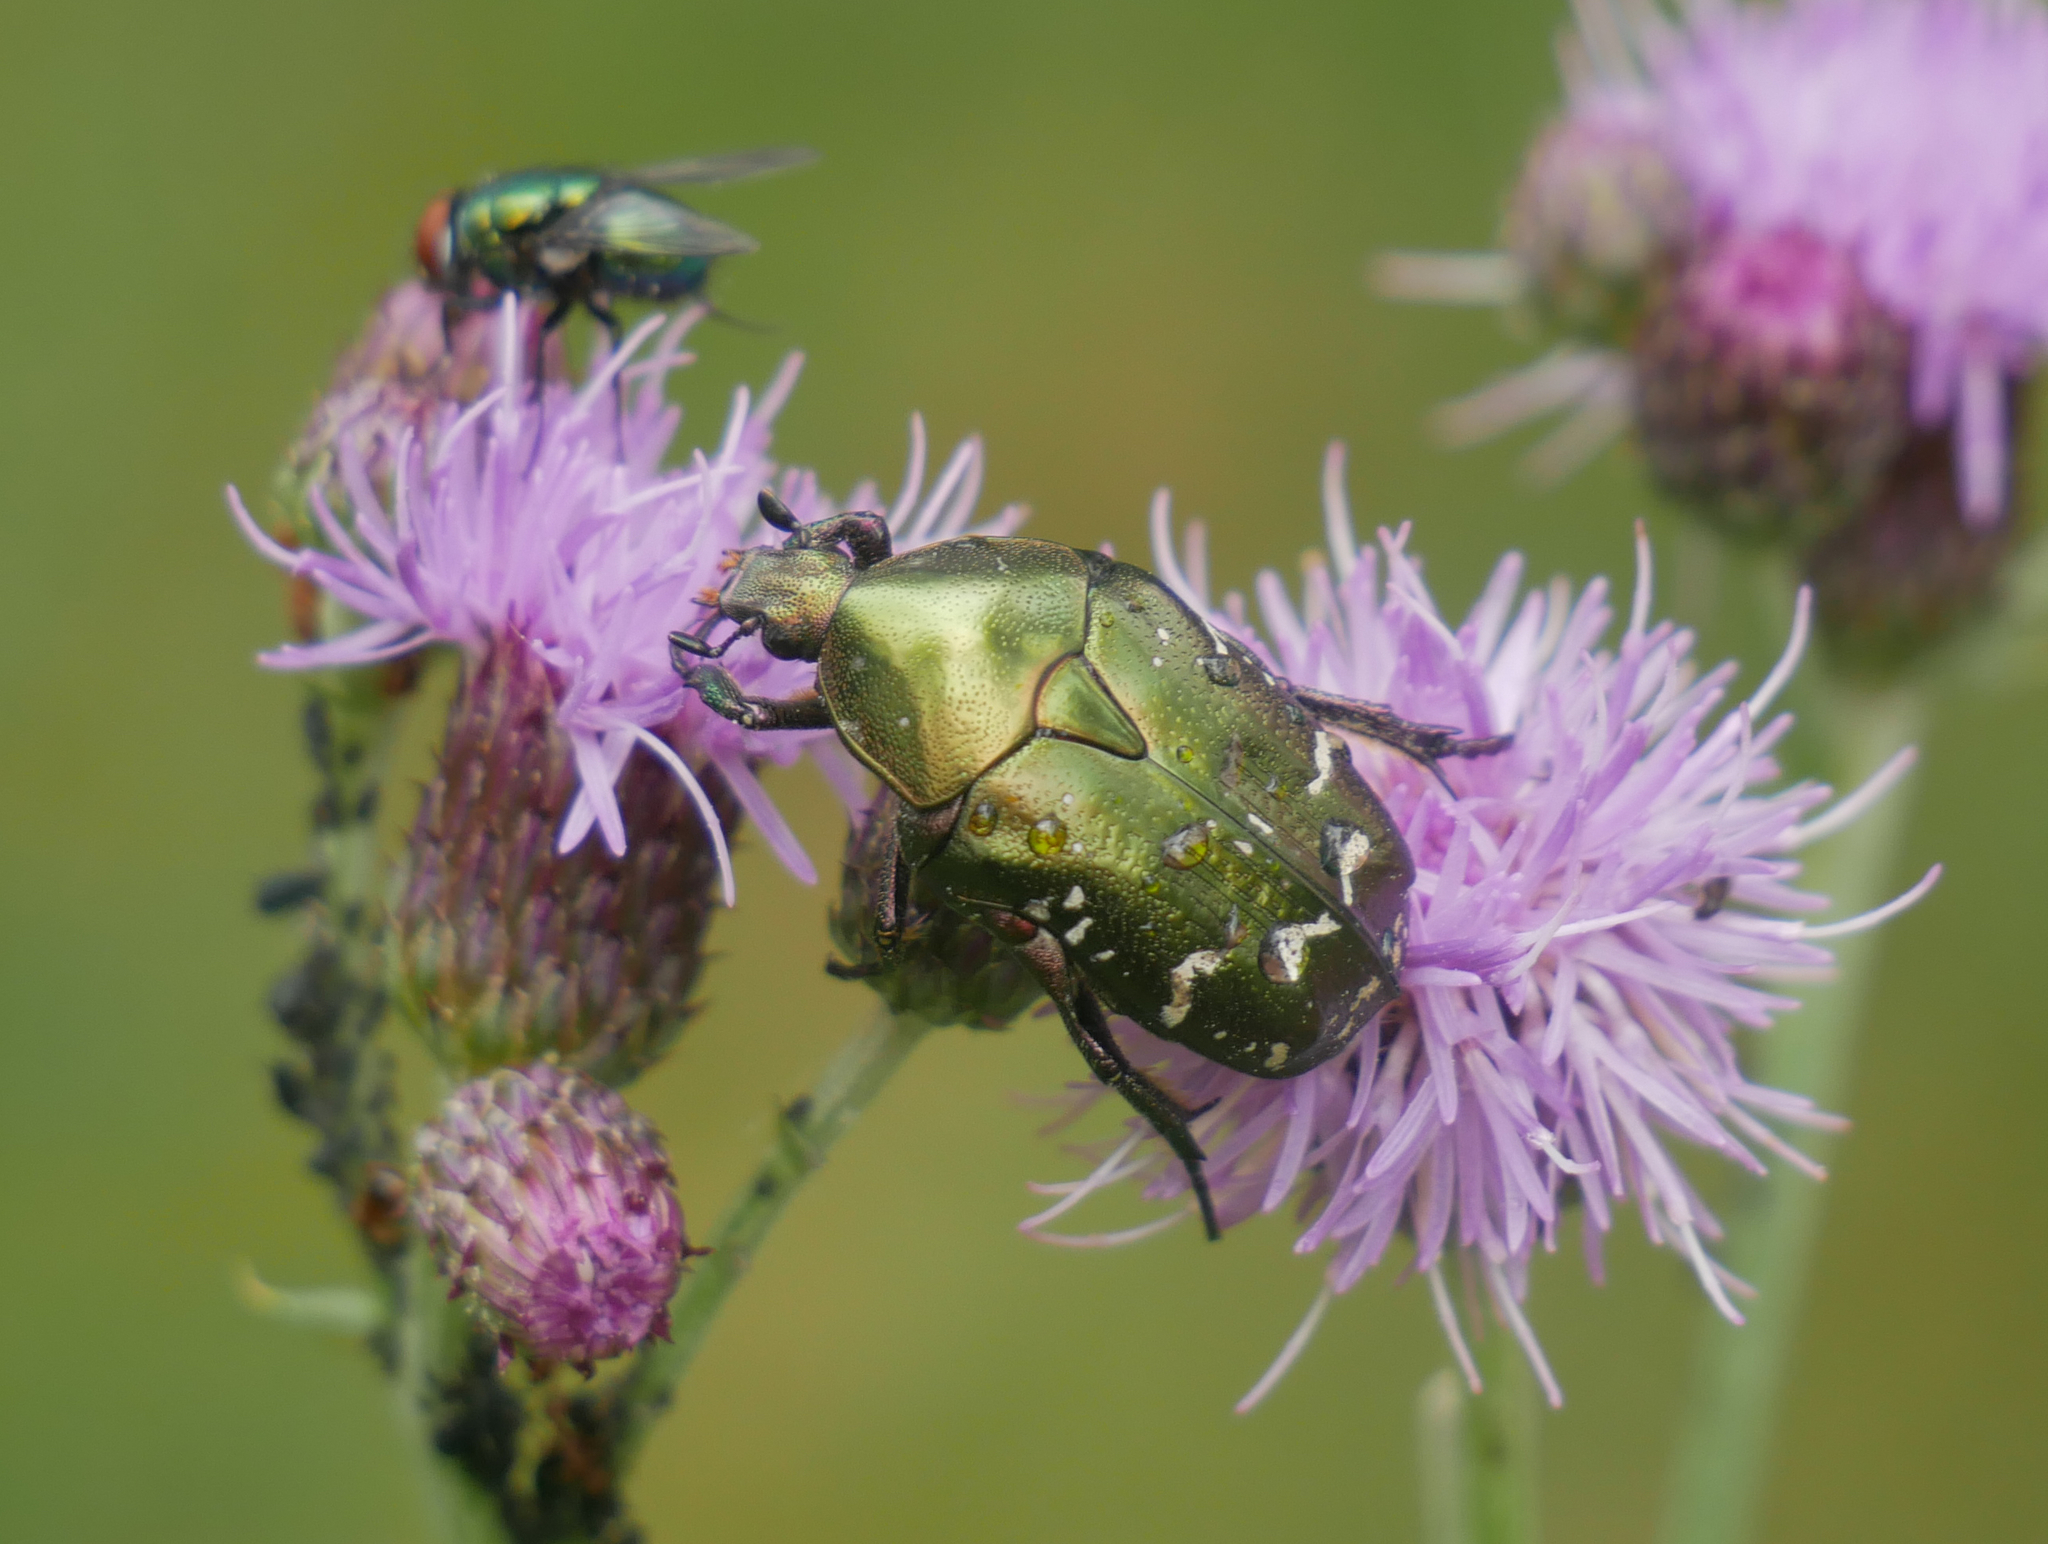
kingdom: Animalia
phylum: Arthropoda
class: Insecta
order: Coleoptera
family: Scarabaeidae
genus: Protaetia
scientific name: Protaetia cuprea
